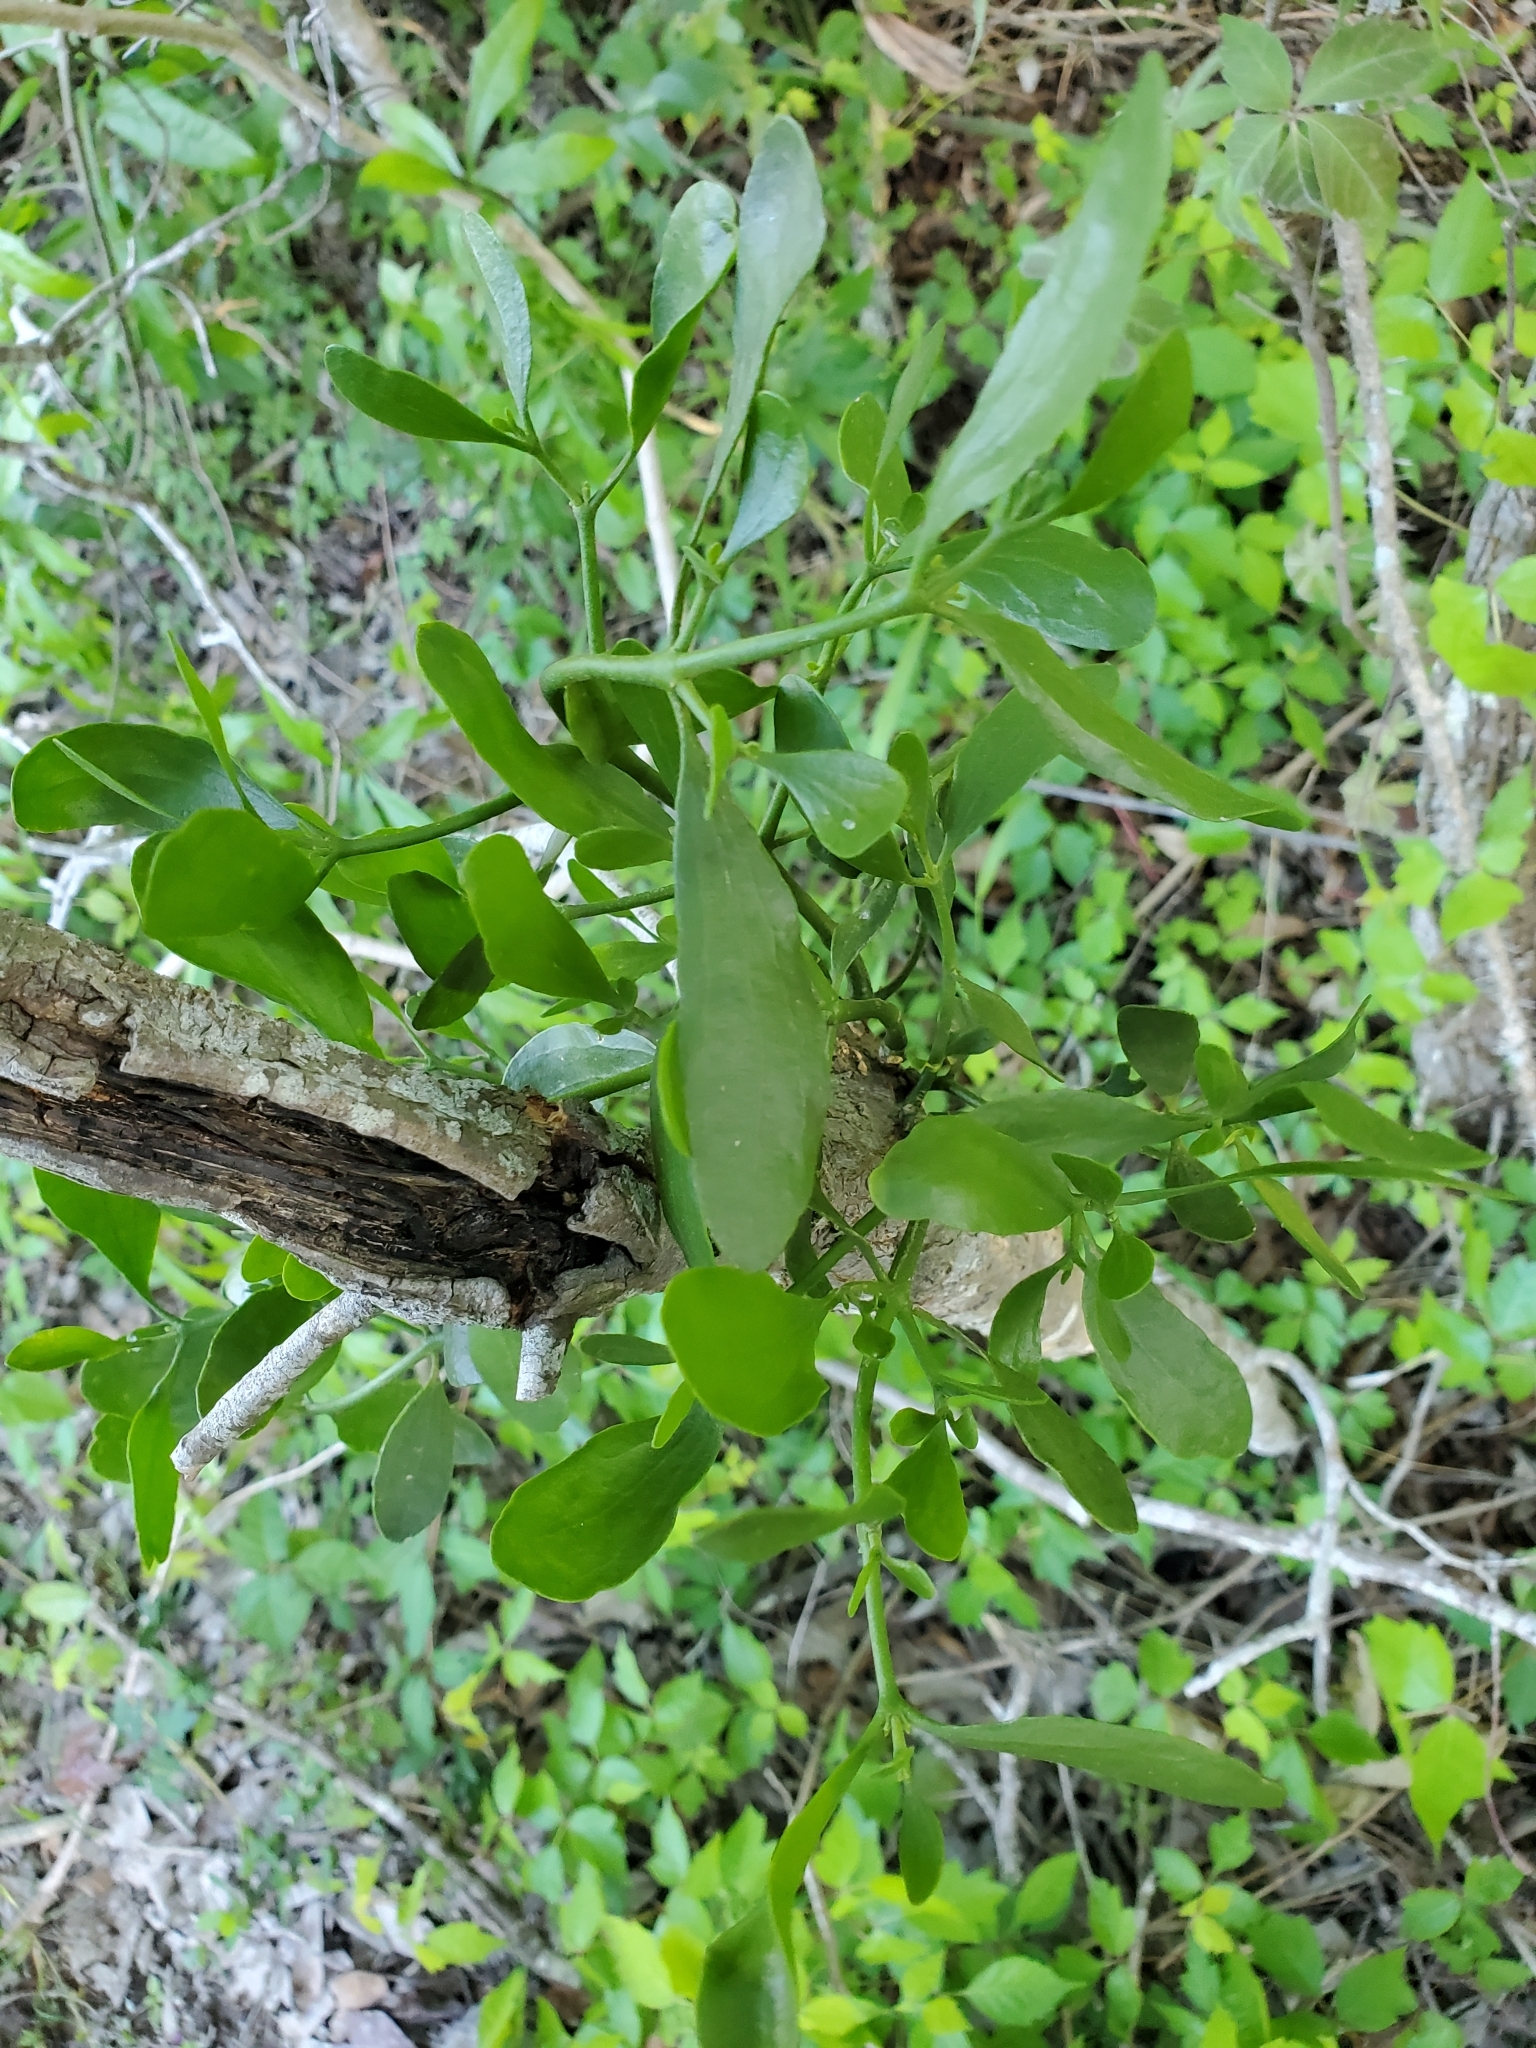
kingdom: Plantae
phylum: Tracheophyta
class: Magnoliopsida
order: Santalales
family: Viscaceae
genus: Phoradendron
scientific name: Phoradendron leucarpum
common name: Pacific mistletoe
